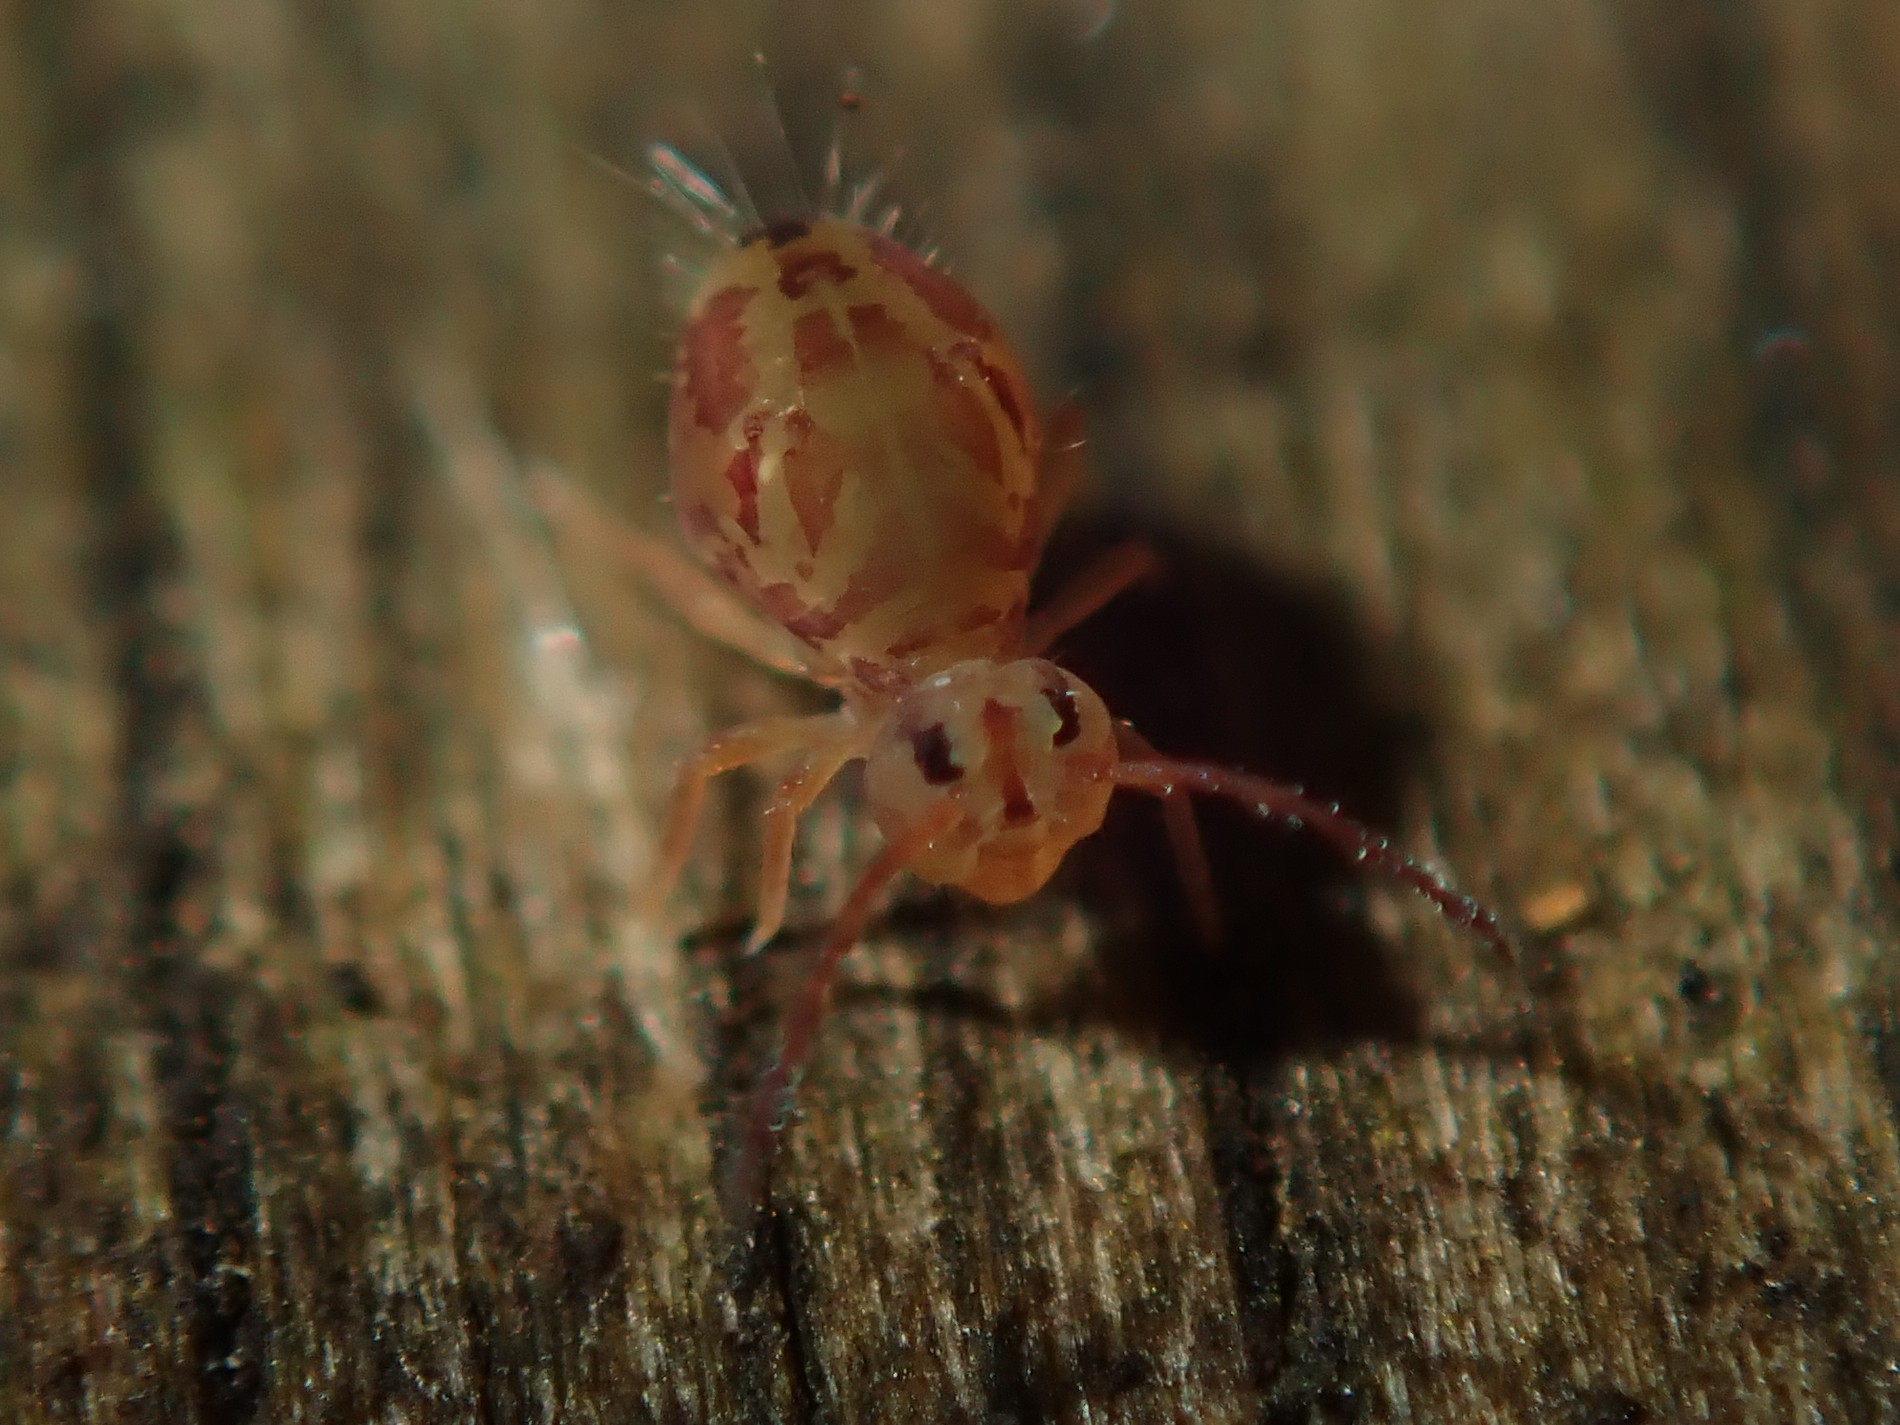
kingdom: Animalia
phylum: Arthropoda
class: Collembola
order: Symphypleona
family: Dicyrtomidae
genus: Dicyrtomina
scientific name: Dicyrtomina ornata
